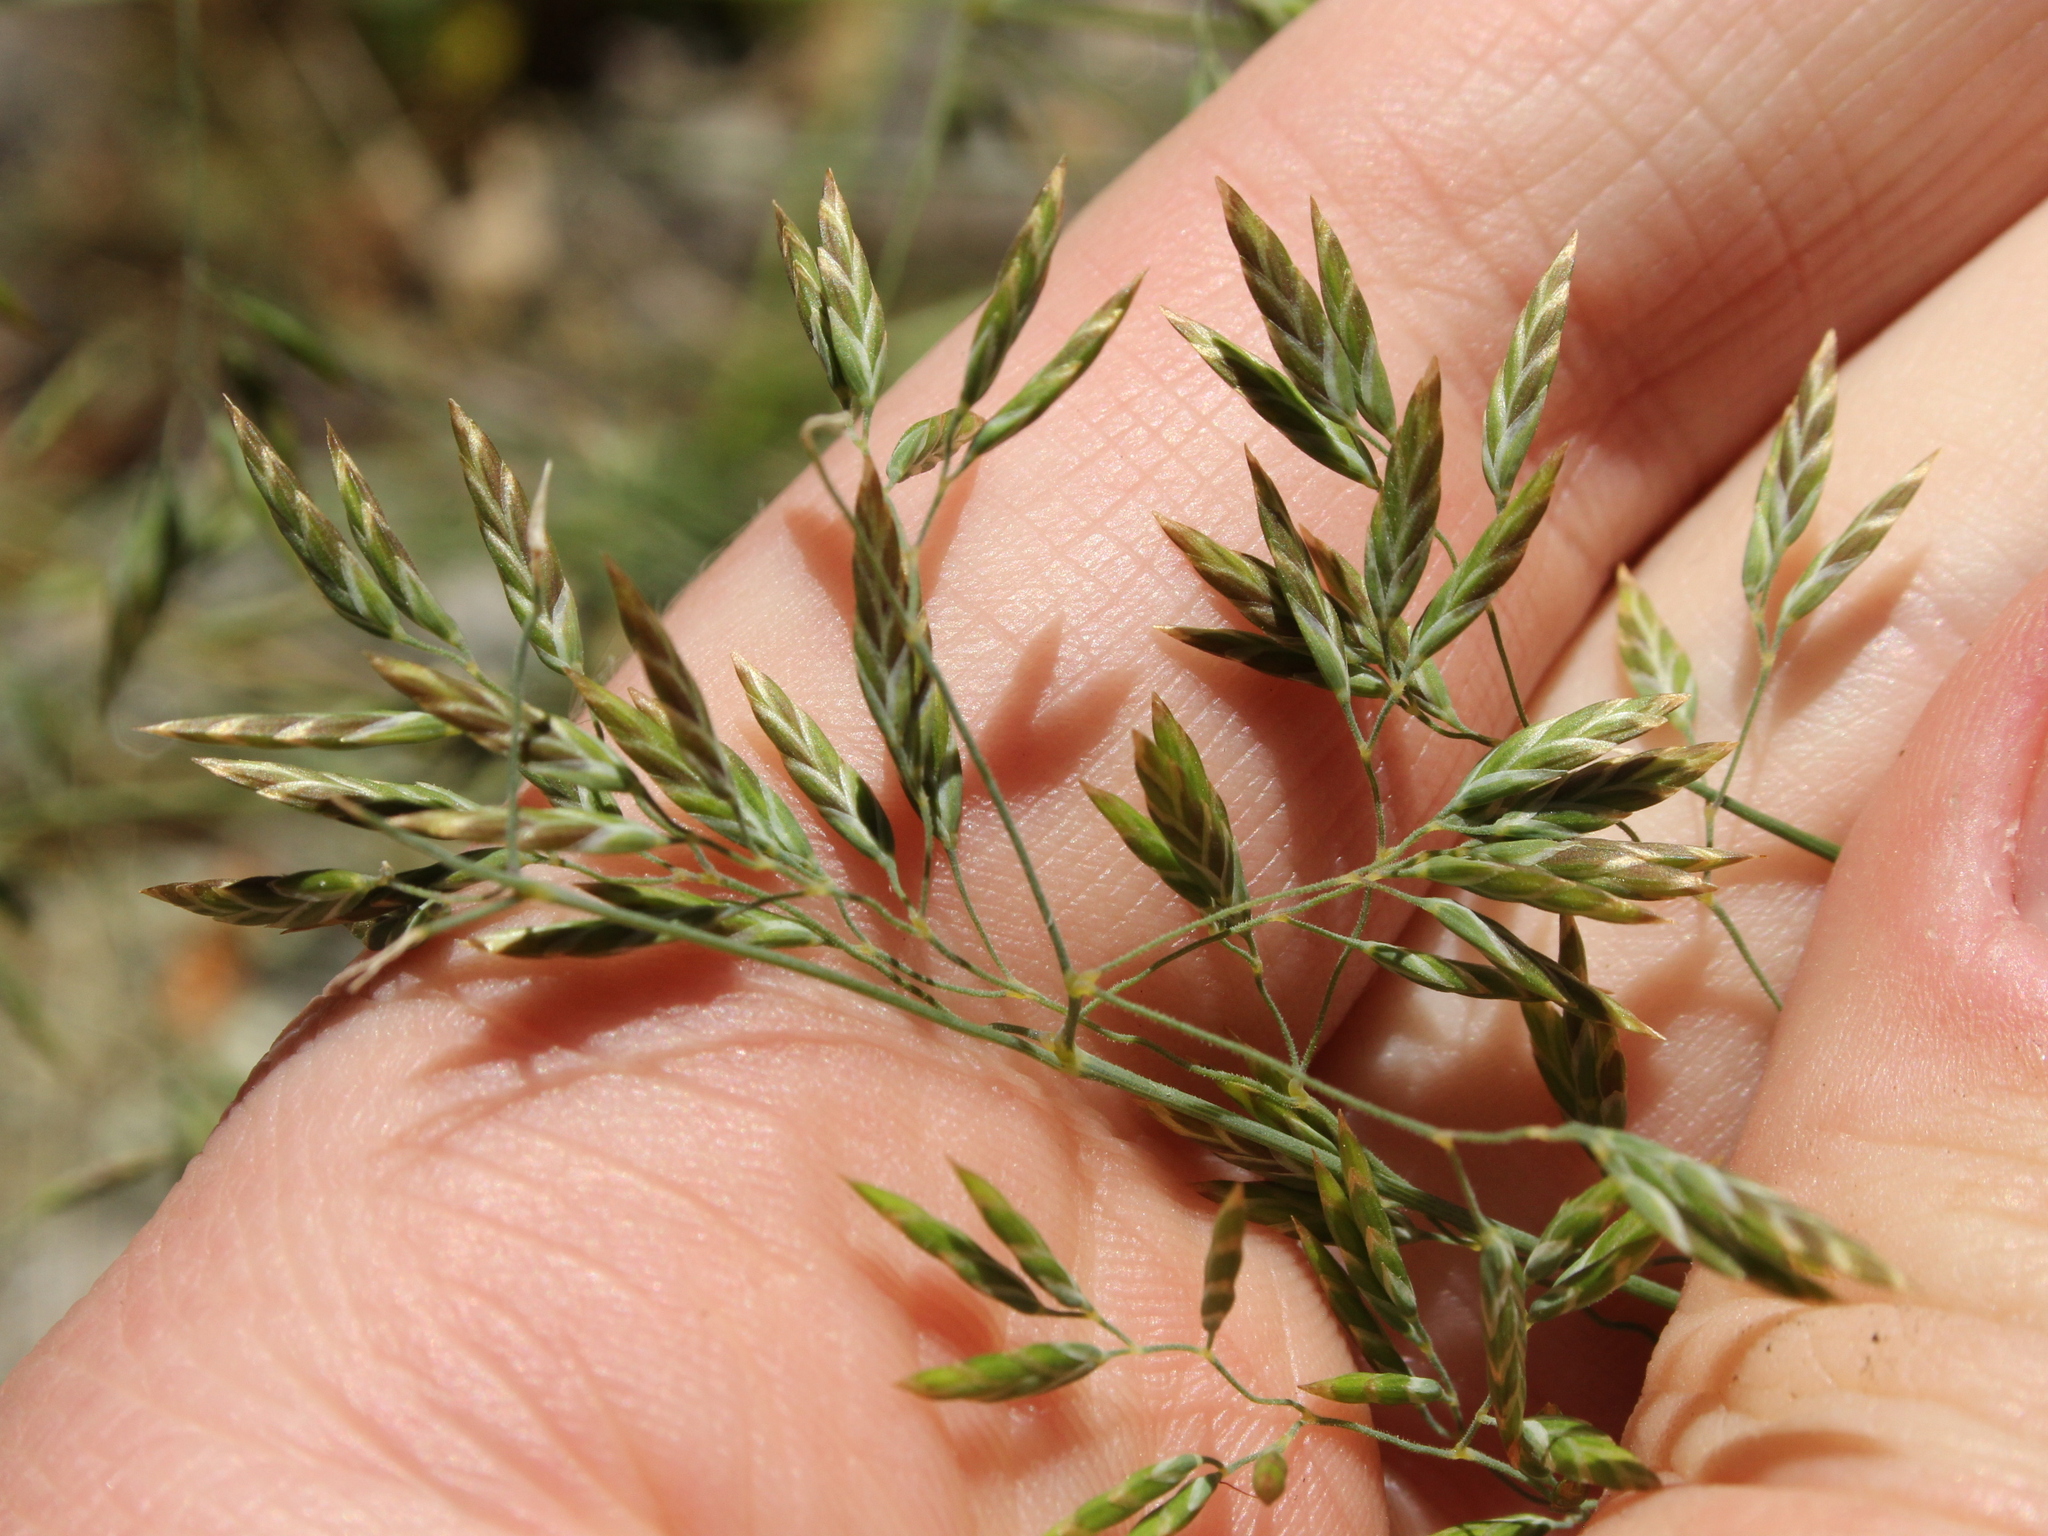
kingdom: Plantae
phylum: Tracheophyta
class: Liliopsida
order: Poales
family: Poaceae
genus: Poa
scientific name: Poa colensoi
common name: Blue tussock
